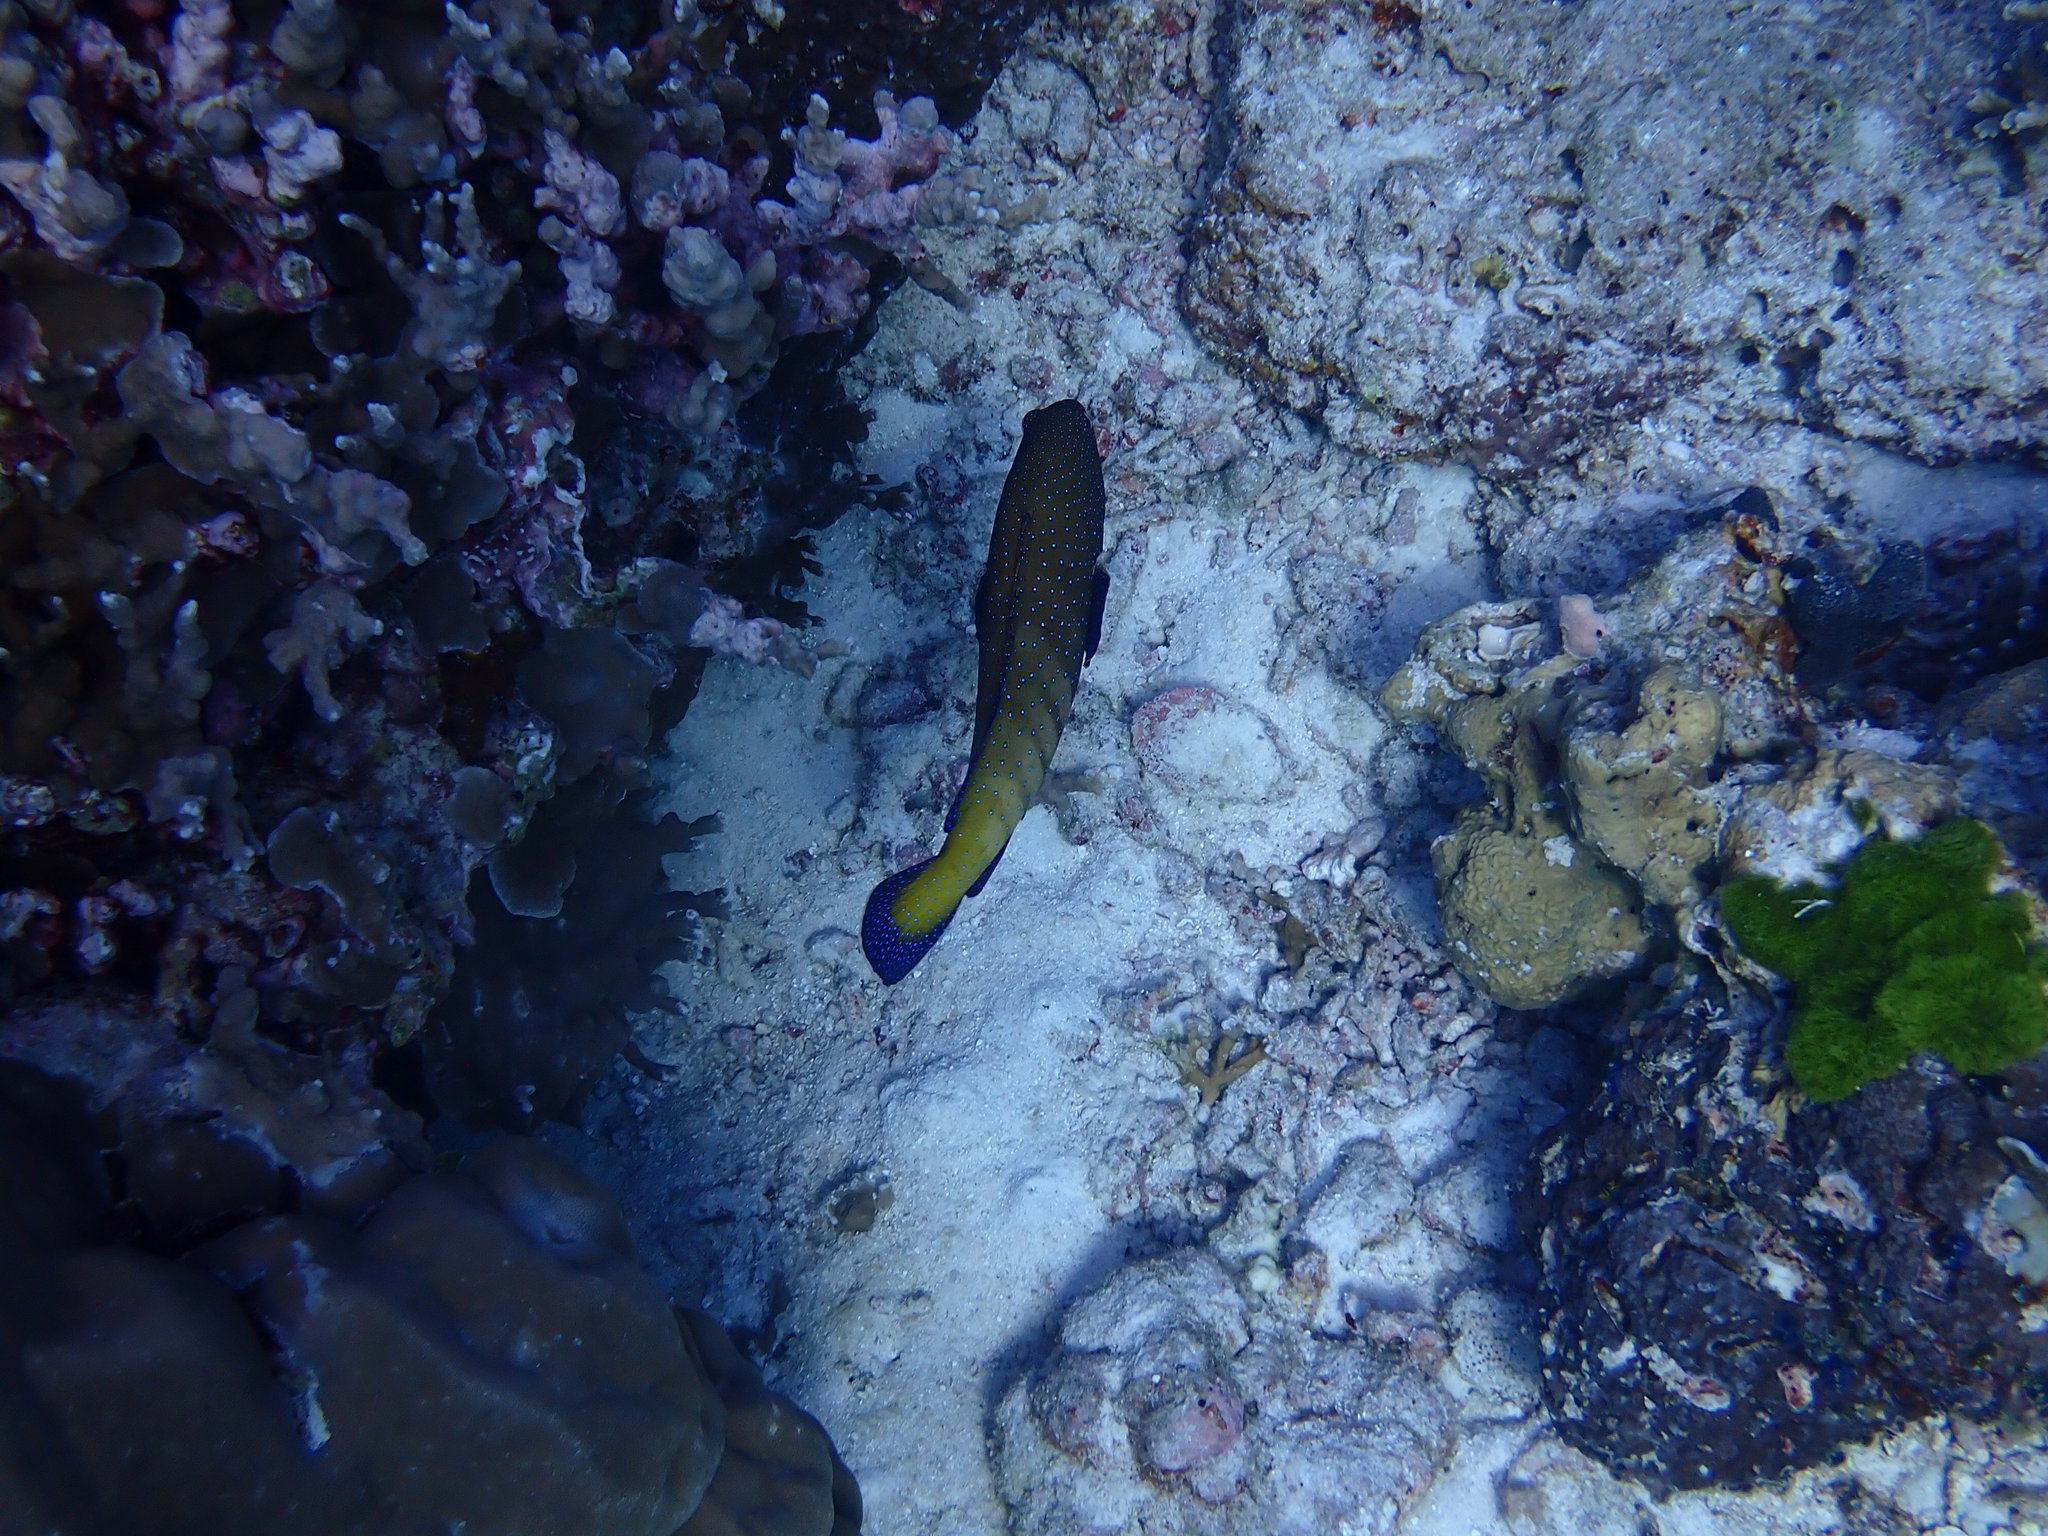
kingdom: Animalia
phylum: Chordata
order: Perciformes
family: Serranidae
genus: Cephalopholis
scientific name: Cephalopholis argus
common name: Peacock grouper
